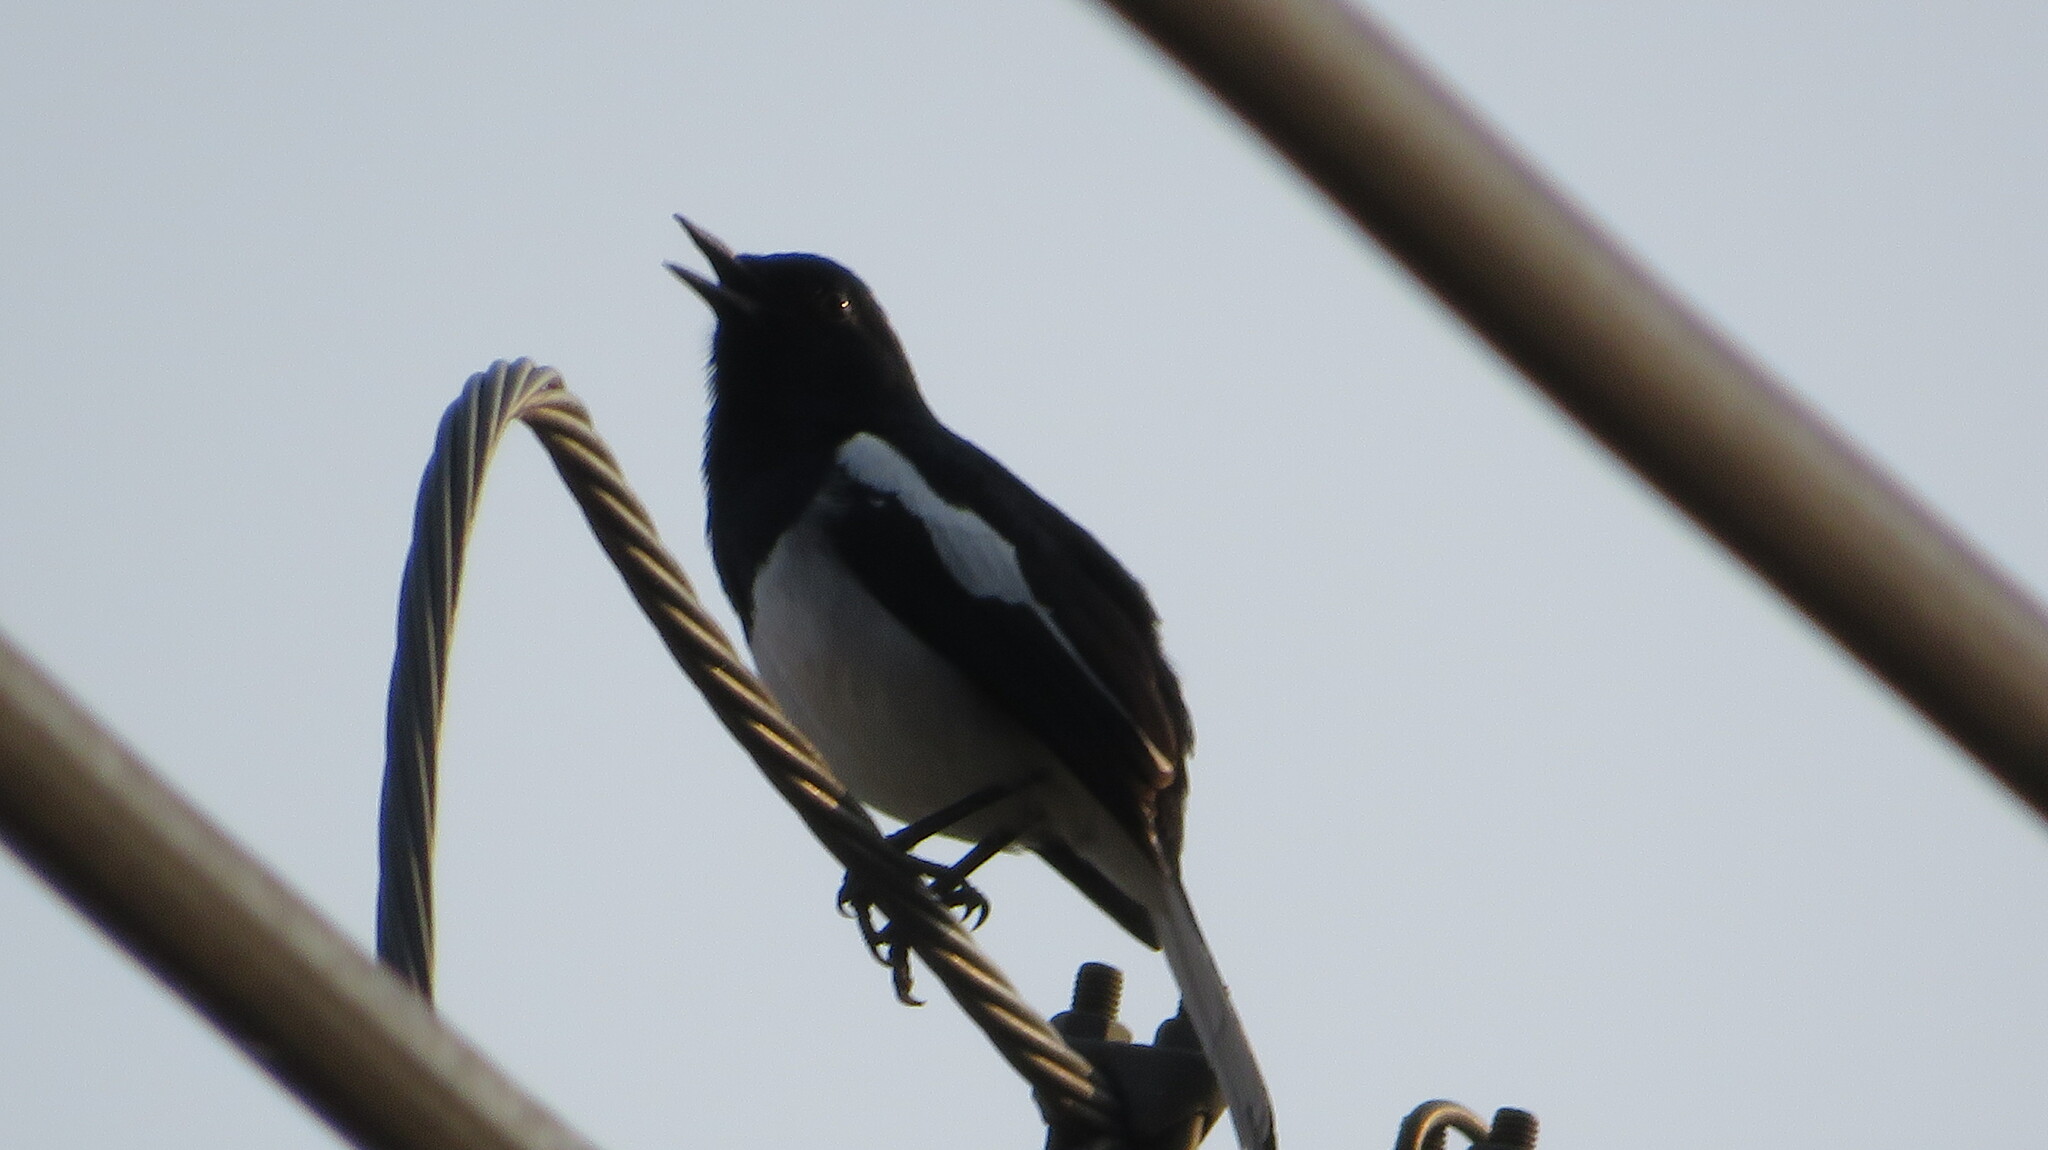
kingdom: Animalia
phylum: Chordata
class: Aves
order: Passeriformes
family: Muscicapidae
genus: Copsychus
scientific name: Copsychus saularis
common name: Oriental magpie-robin
